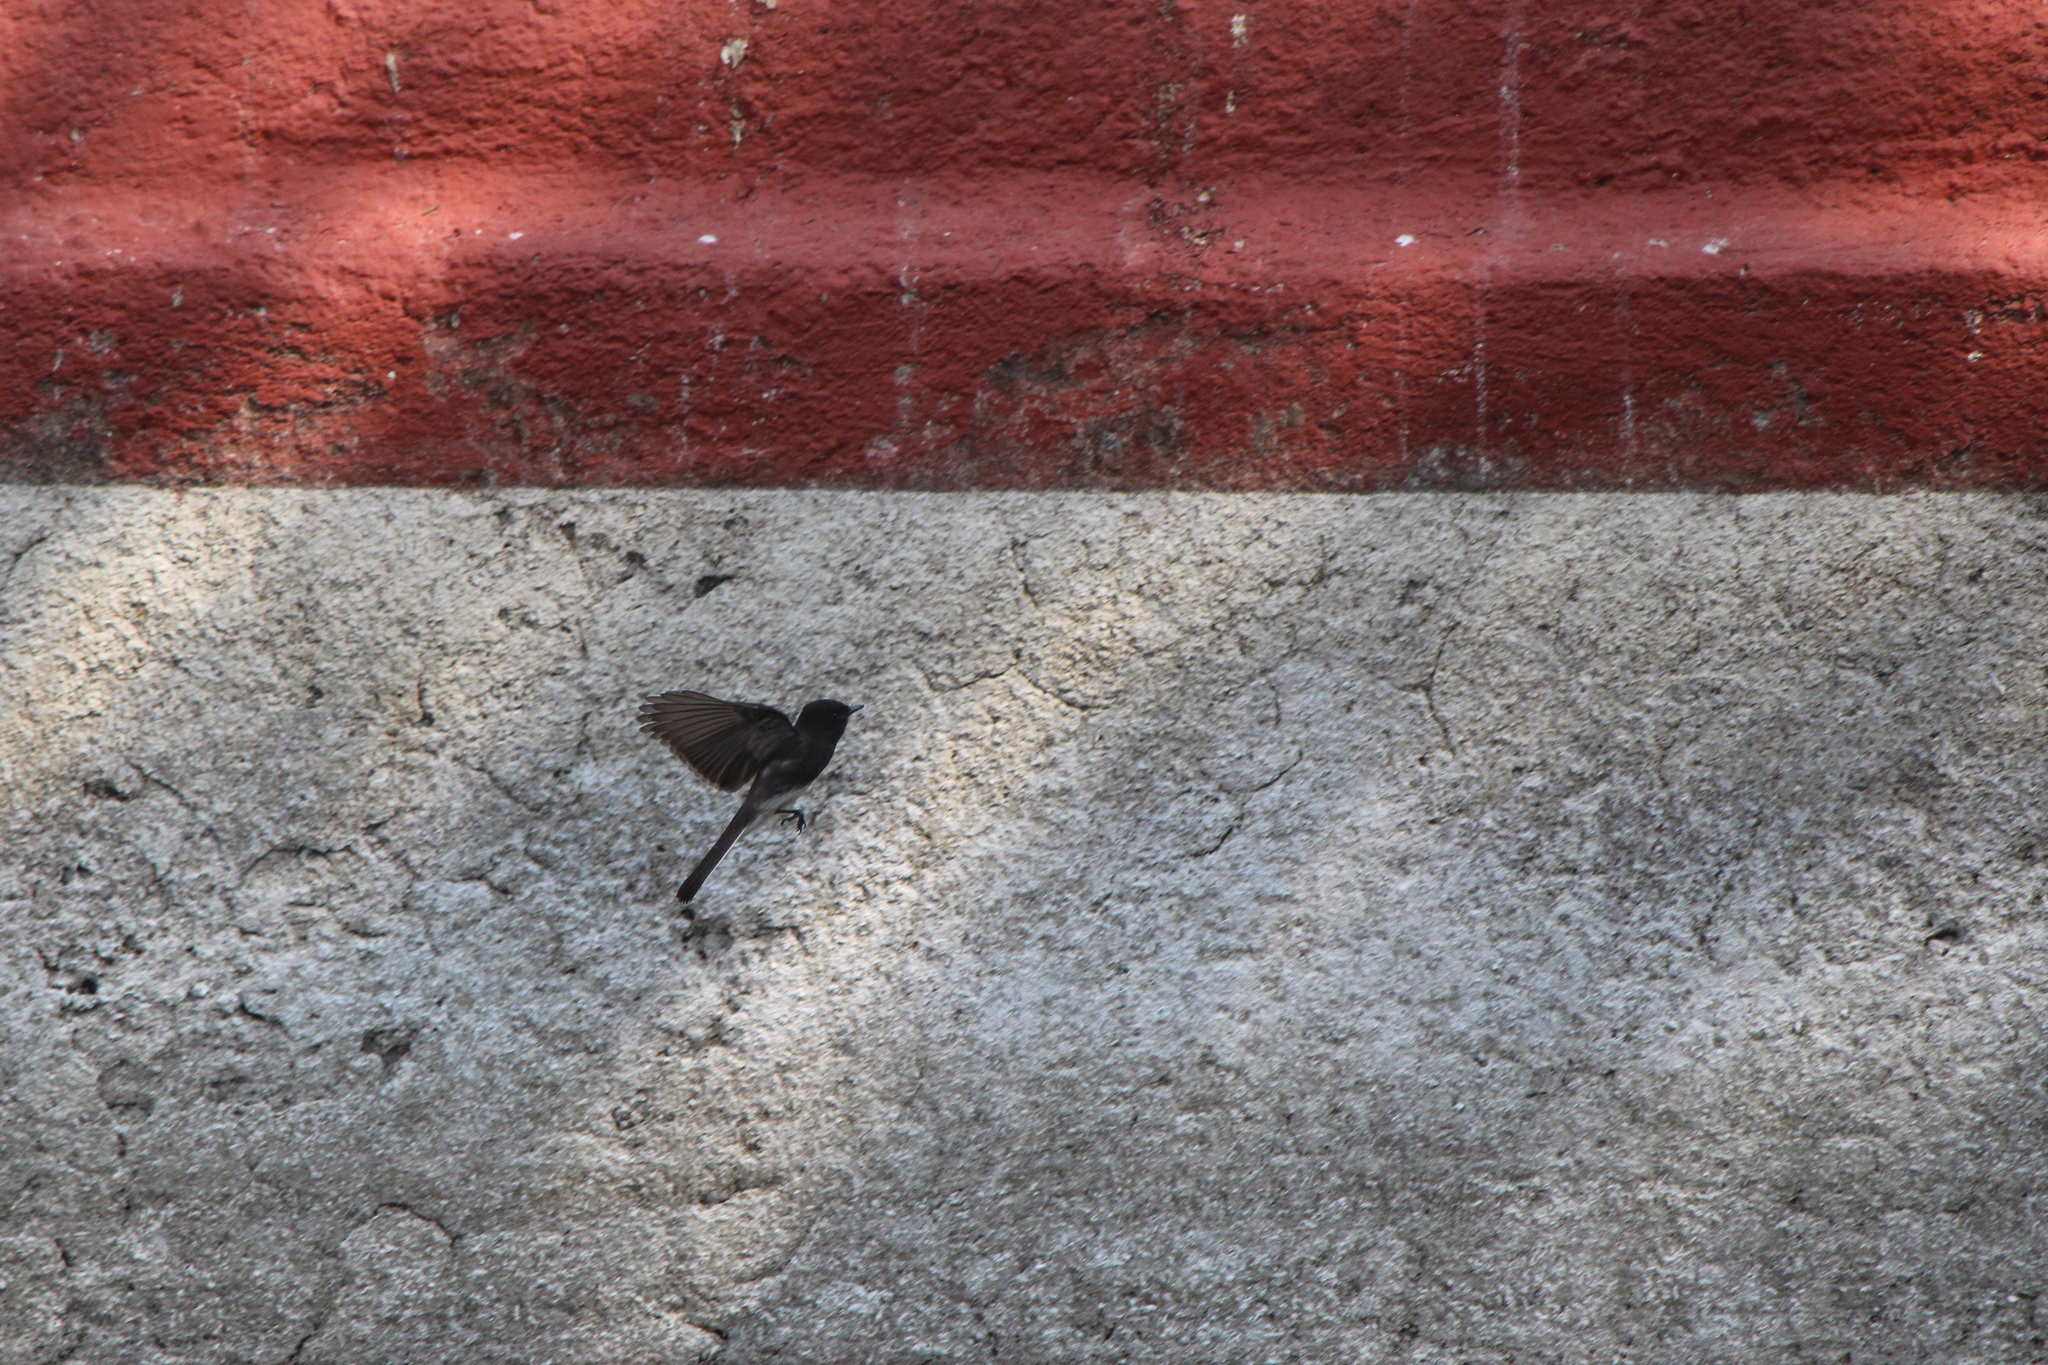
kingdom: Animalia
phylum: Chordata
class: Aves
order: Passeriformes
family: Tyrannidae
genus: Sayornis
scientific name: Sayornis nigricans
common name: Black phoebe
